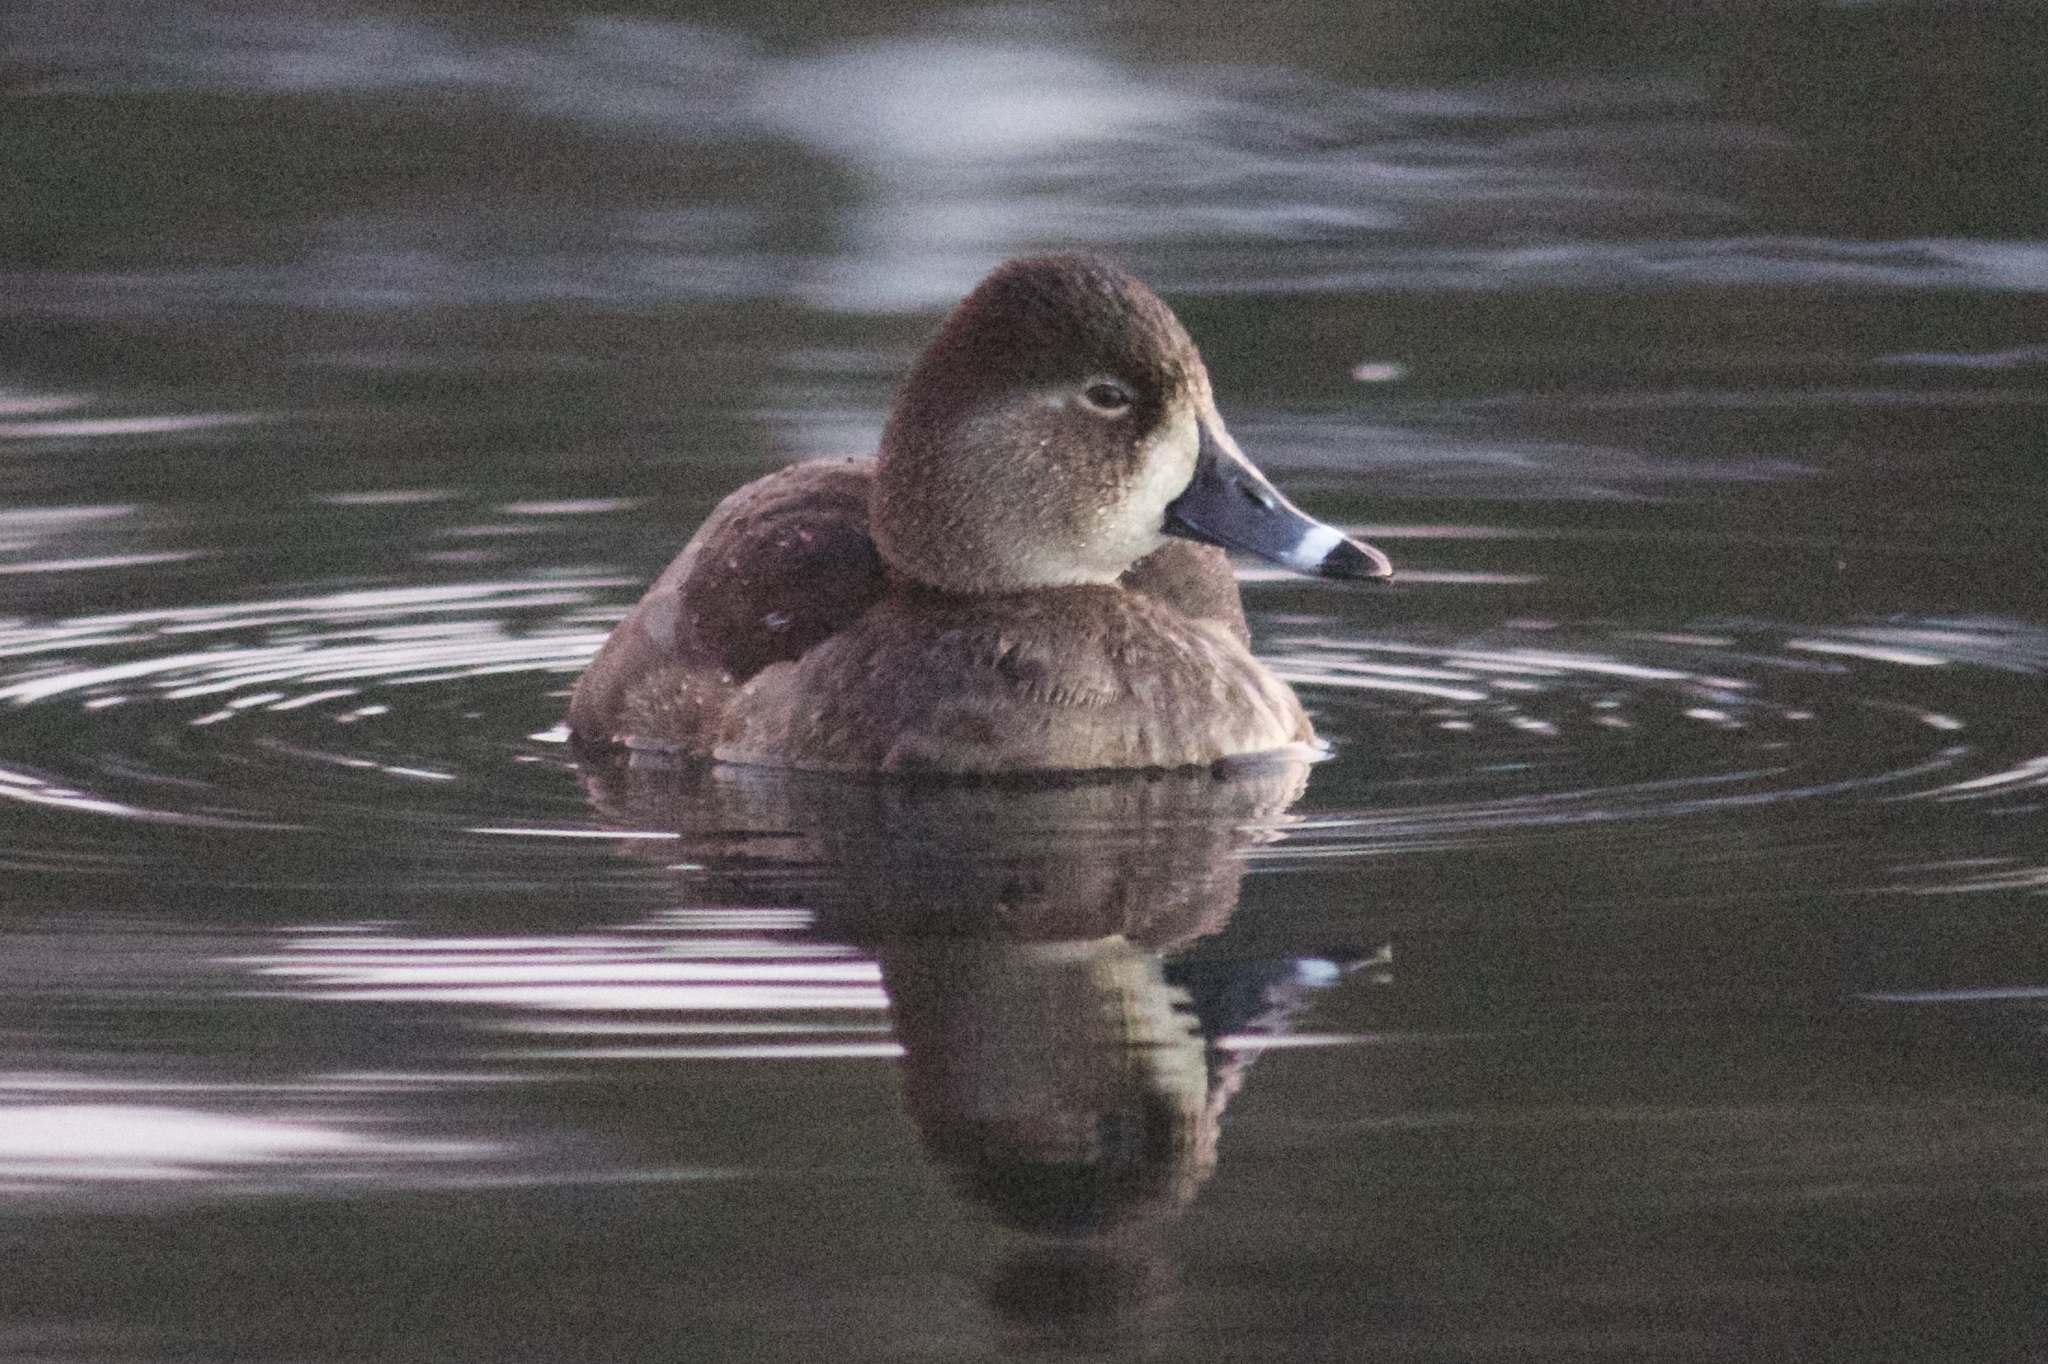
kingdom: Animalia
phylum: Chordata
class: Aves
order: Anseriformes
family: Anatidae
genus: Aythya
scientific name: Aythya collaris
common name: Ring-necked duck
